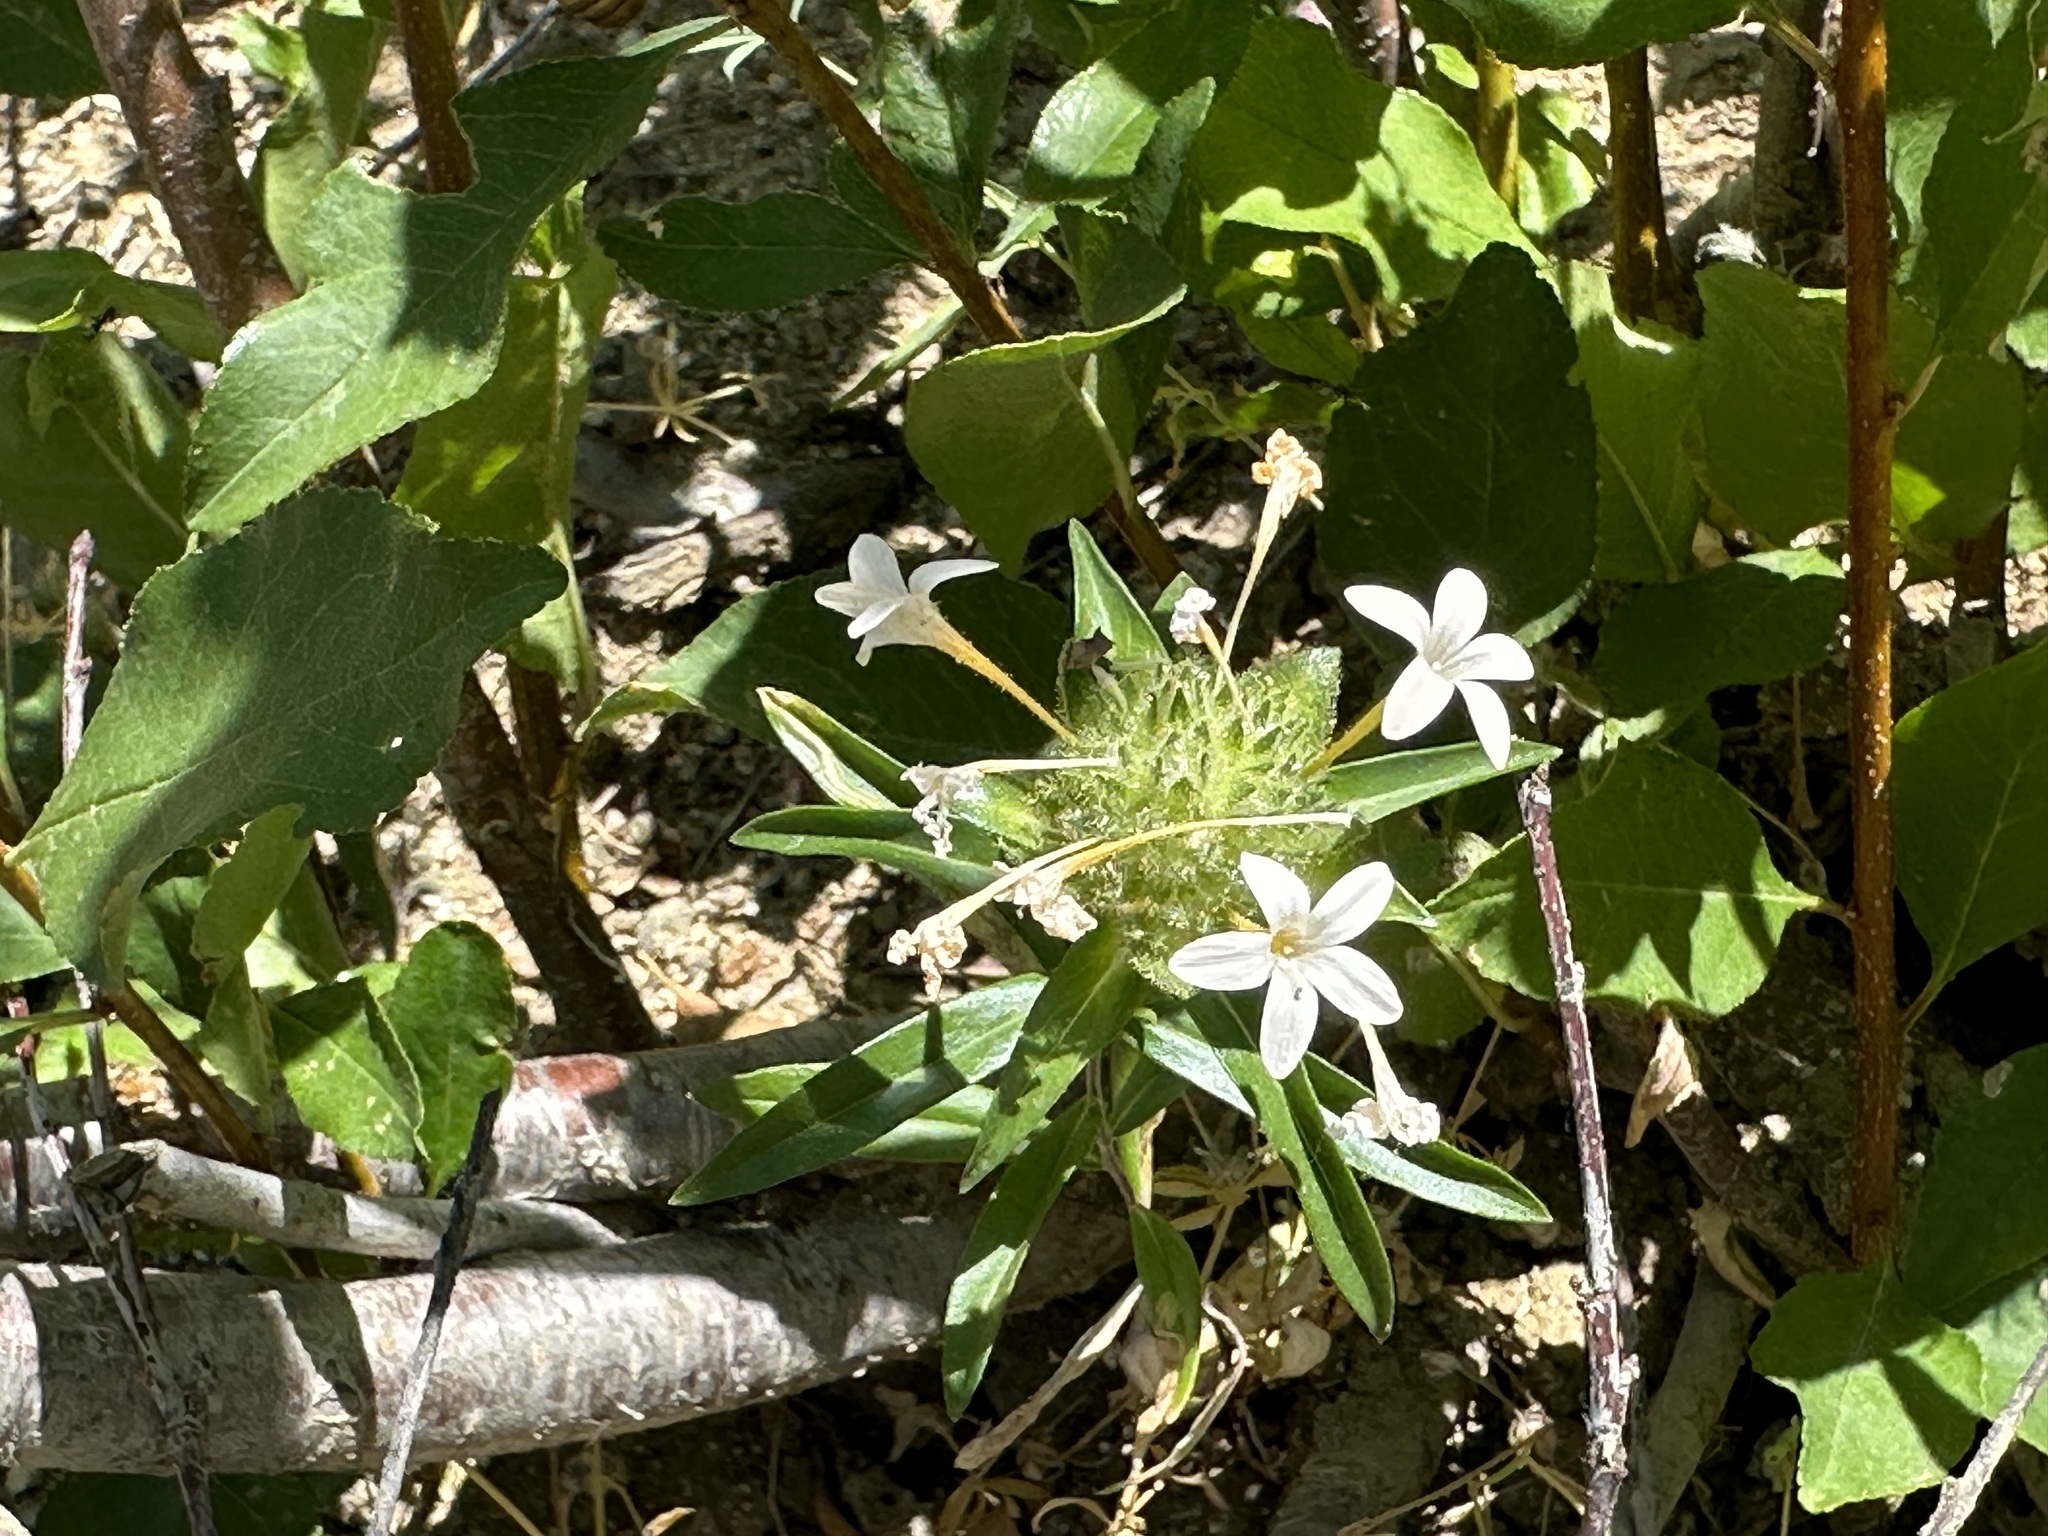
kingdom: Plantae
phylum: Tracheophyta
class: Magnoliopsida
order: Ericales
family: Polemoniaceae
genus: Collomia
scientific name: Collomia grandiflora
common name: California strawflower
